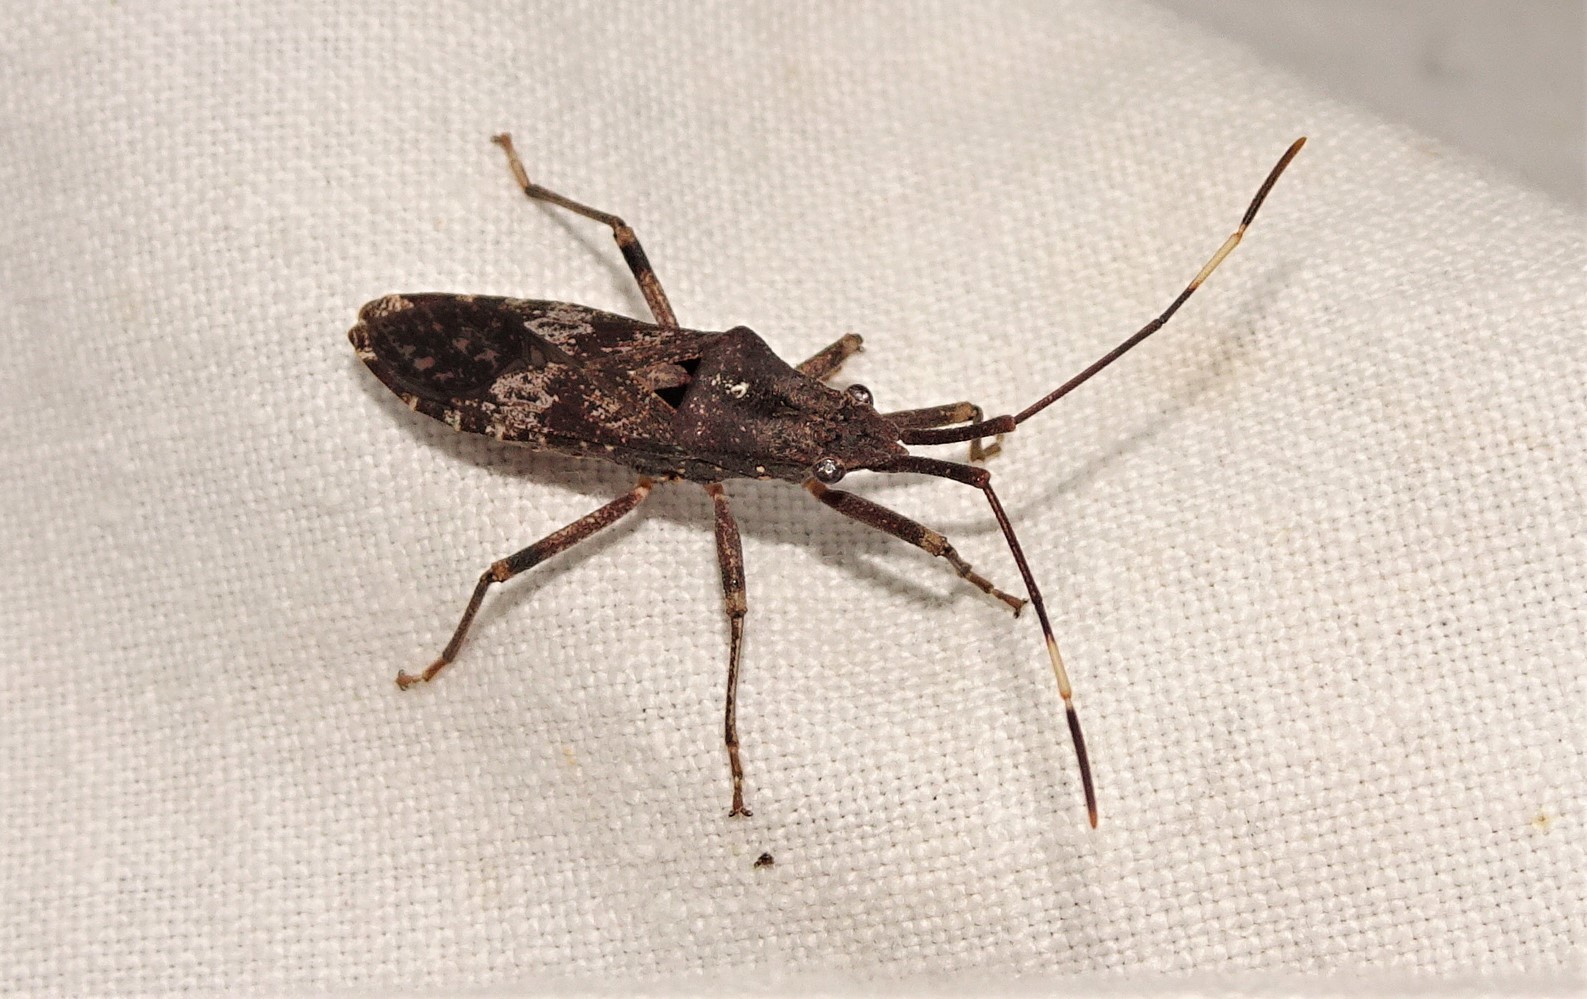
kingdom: Animalia
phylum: Arthropoda
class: Insecta
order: Hemiptera
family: Coreidae
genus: Kurrajongia
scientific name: Kurrajongia aploa
